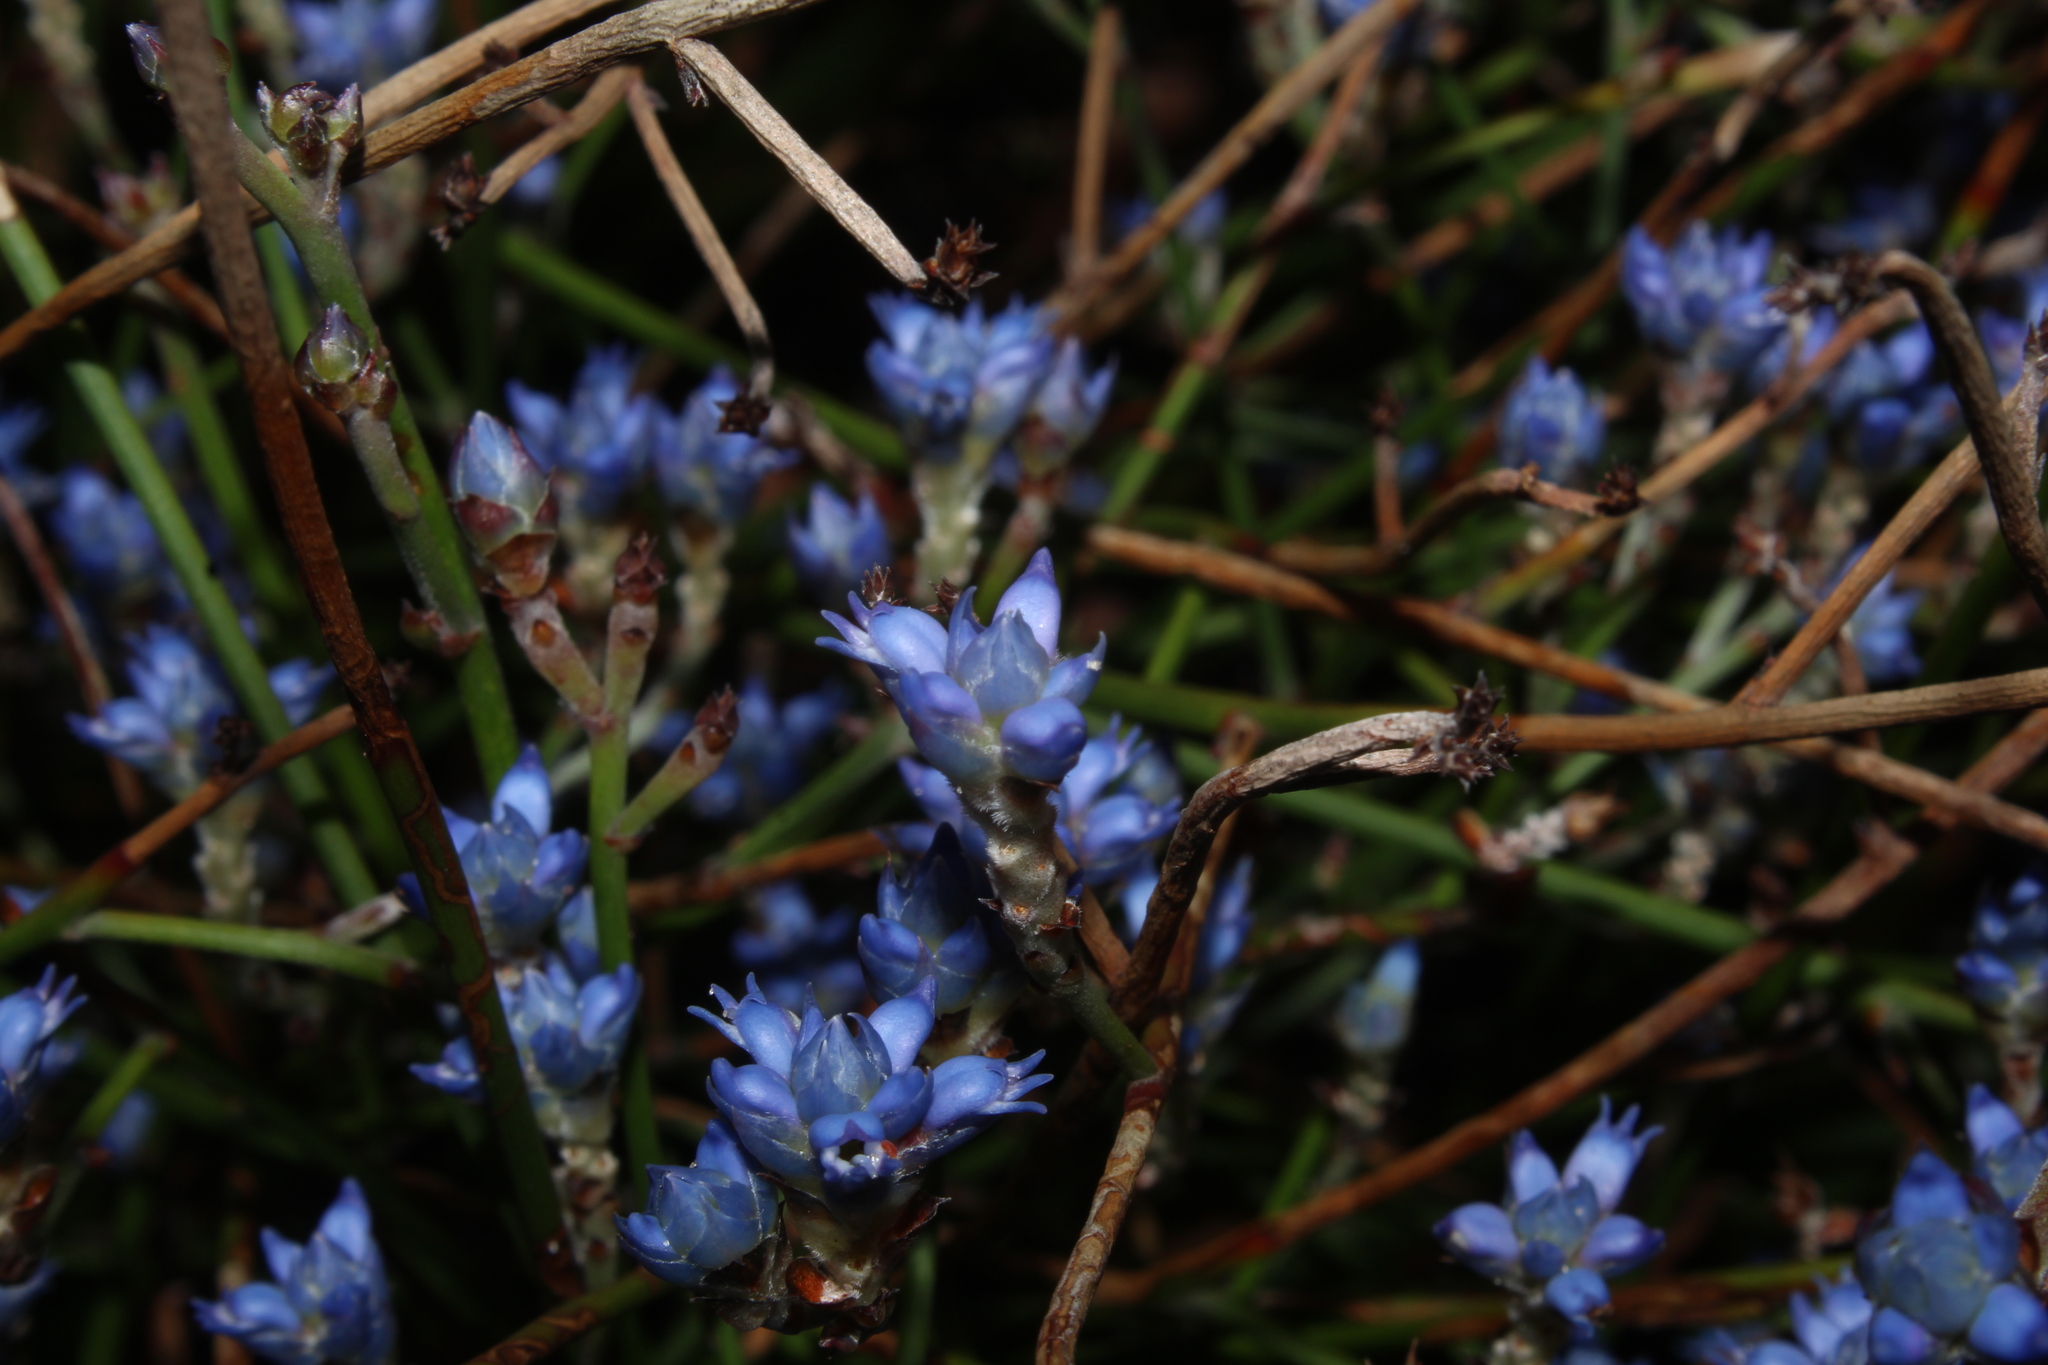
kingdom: Plantae
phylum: Tracheophyta
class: Magnoliopsida
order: Proteales
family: Proteaceae
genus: Conospermum
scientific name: Conospermum caeruleum
